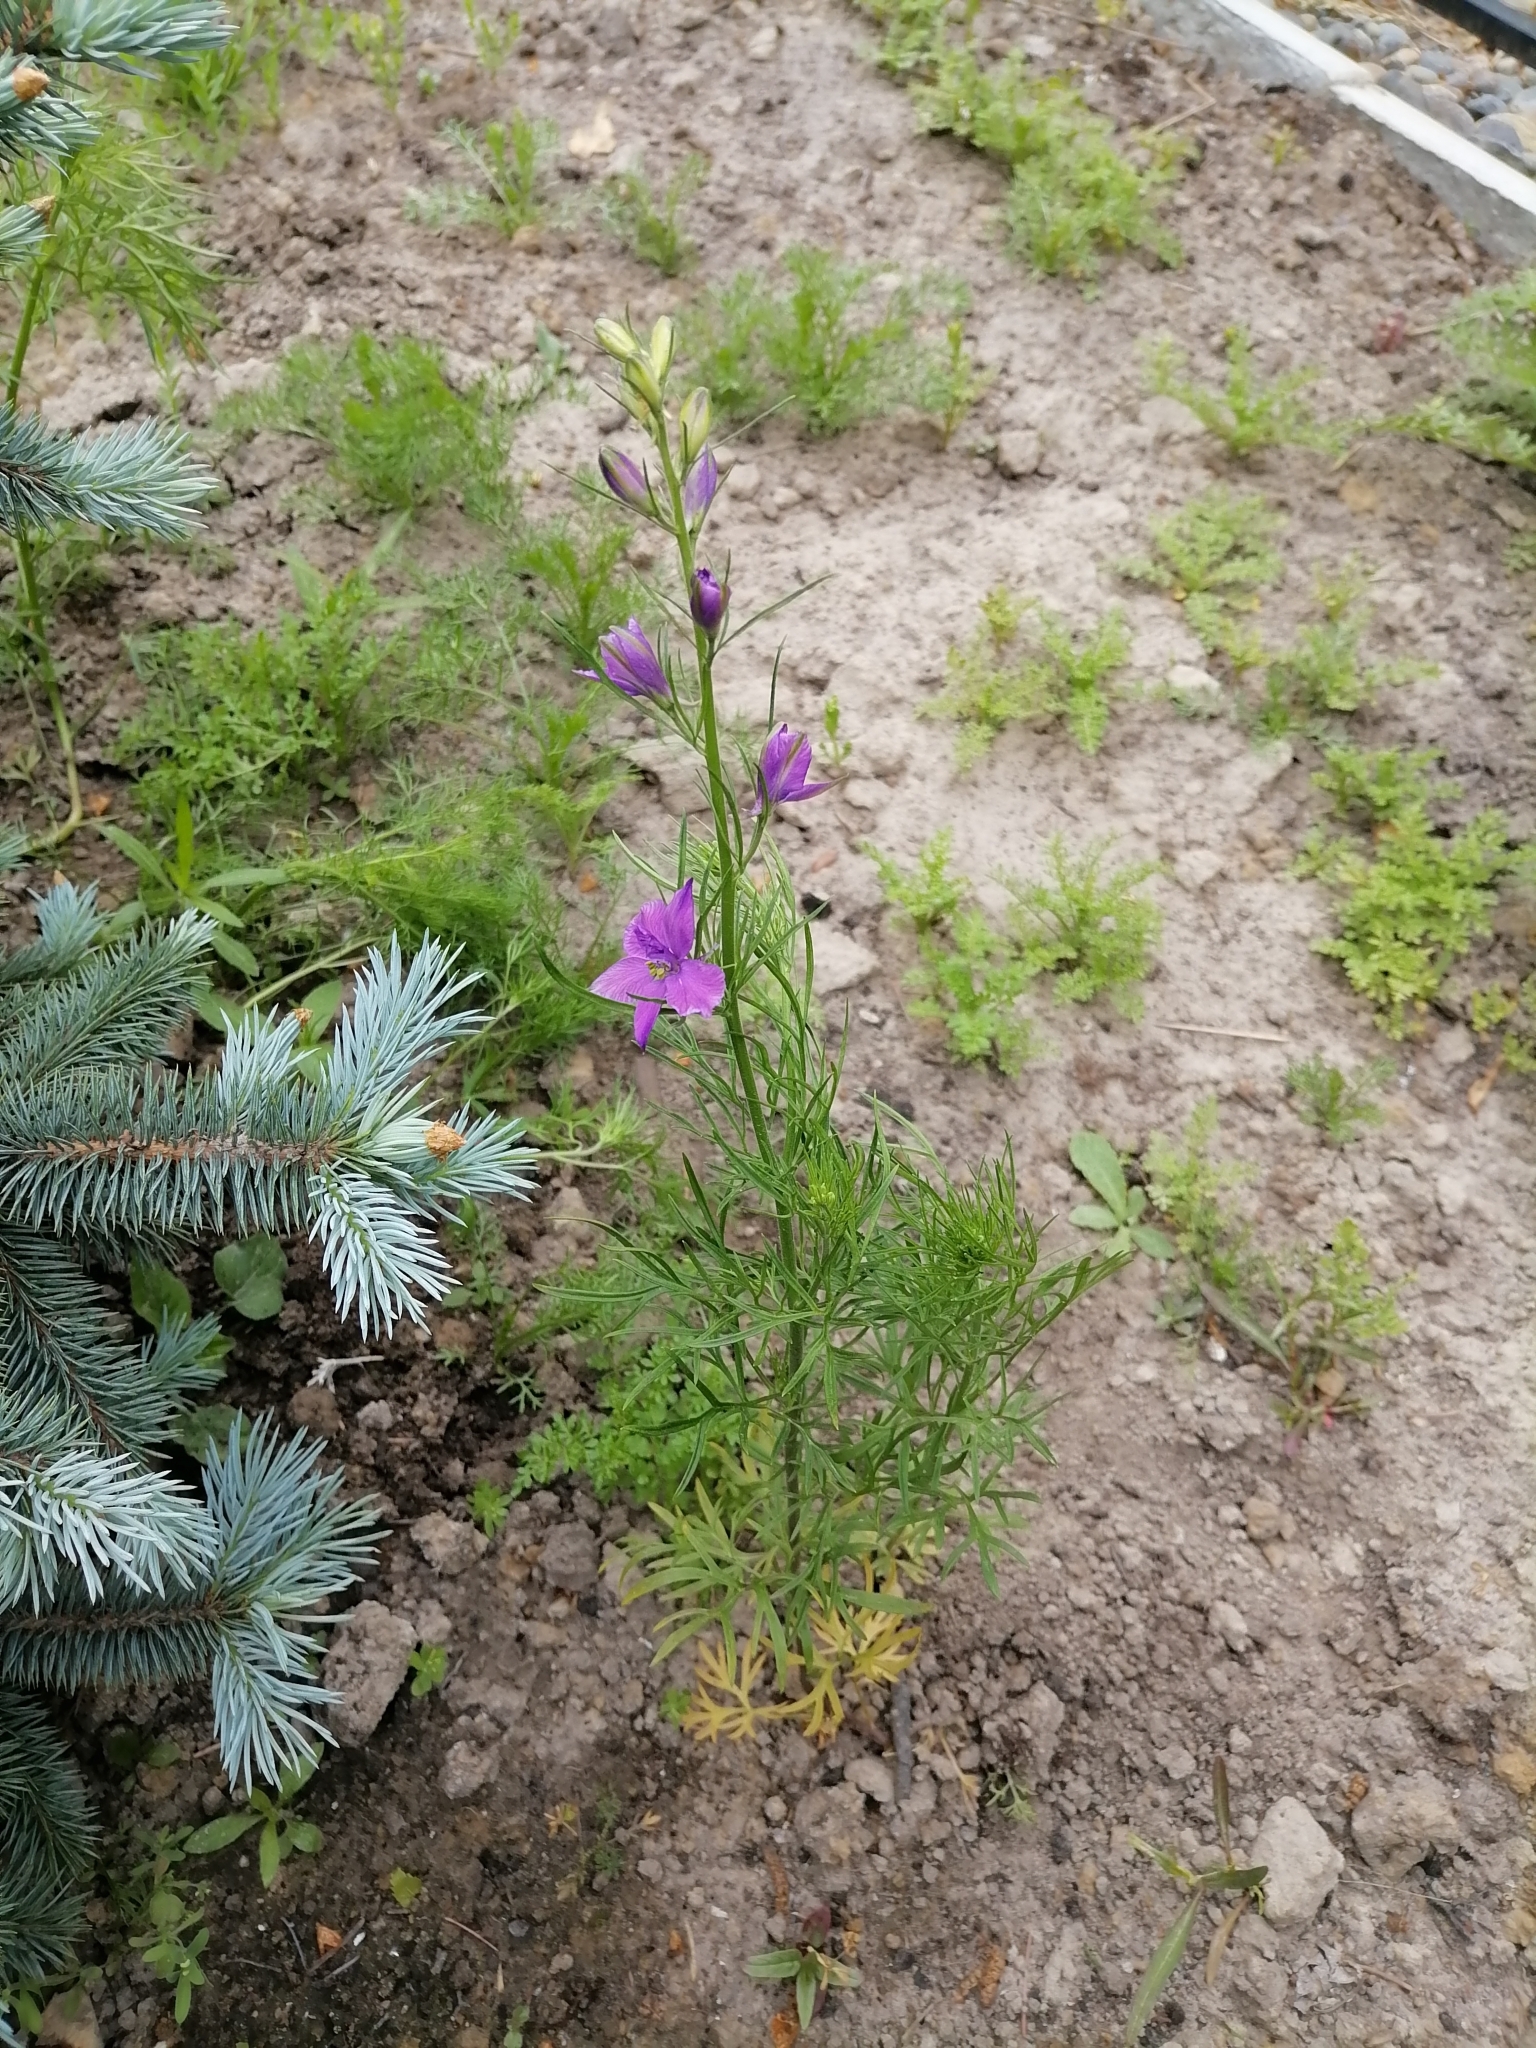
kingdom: Plantae
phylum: Tracheophyta
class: Magnoliopsida
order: Ranunculales
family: Ranunculaceae
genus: Delphinium
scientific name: Delphinium consolida
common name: Branching larkspur
